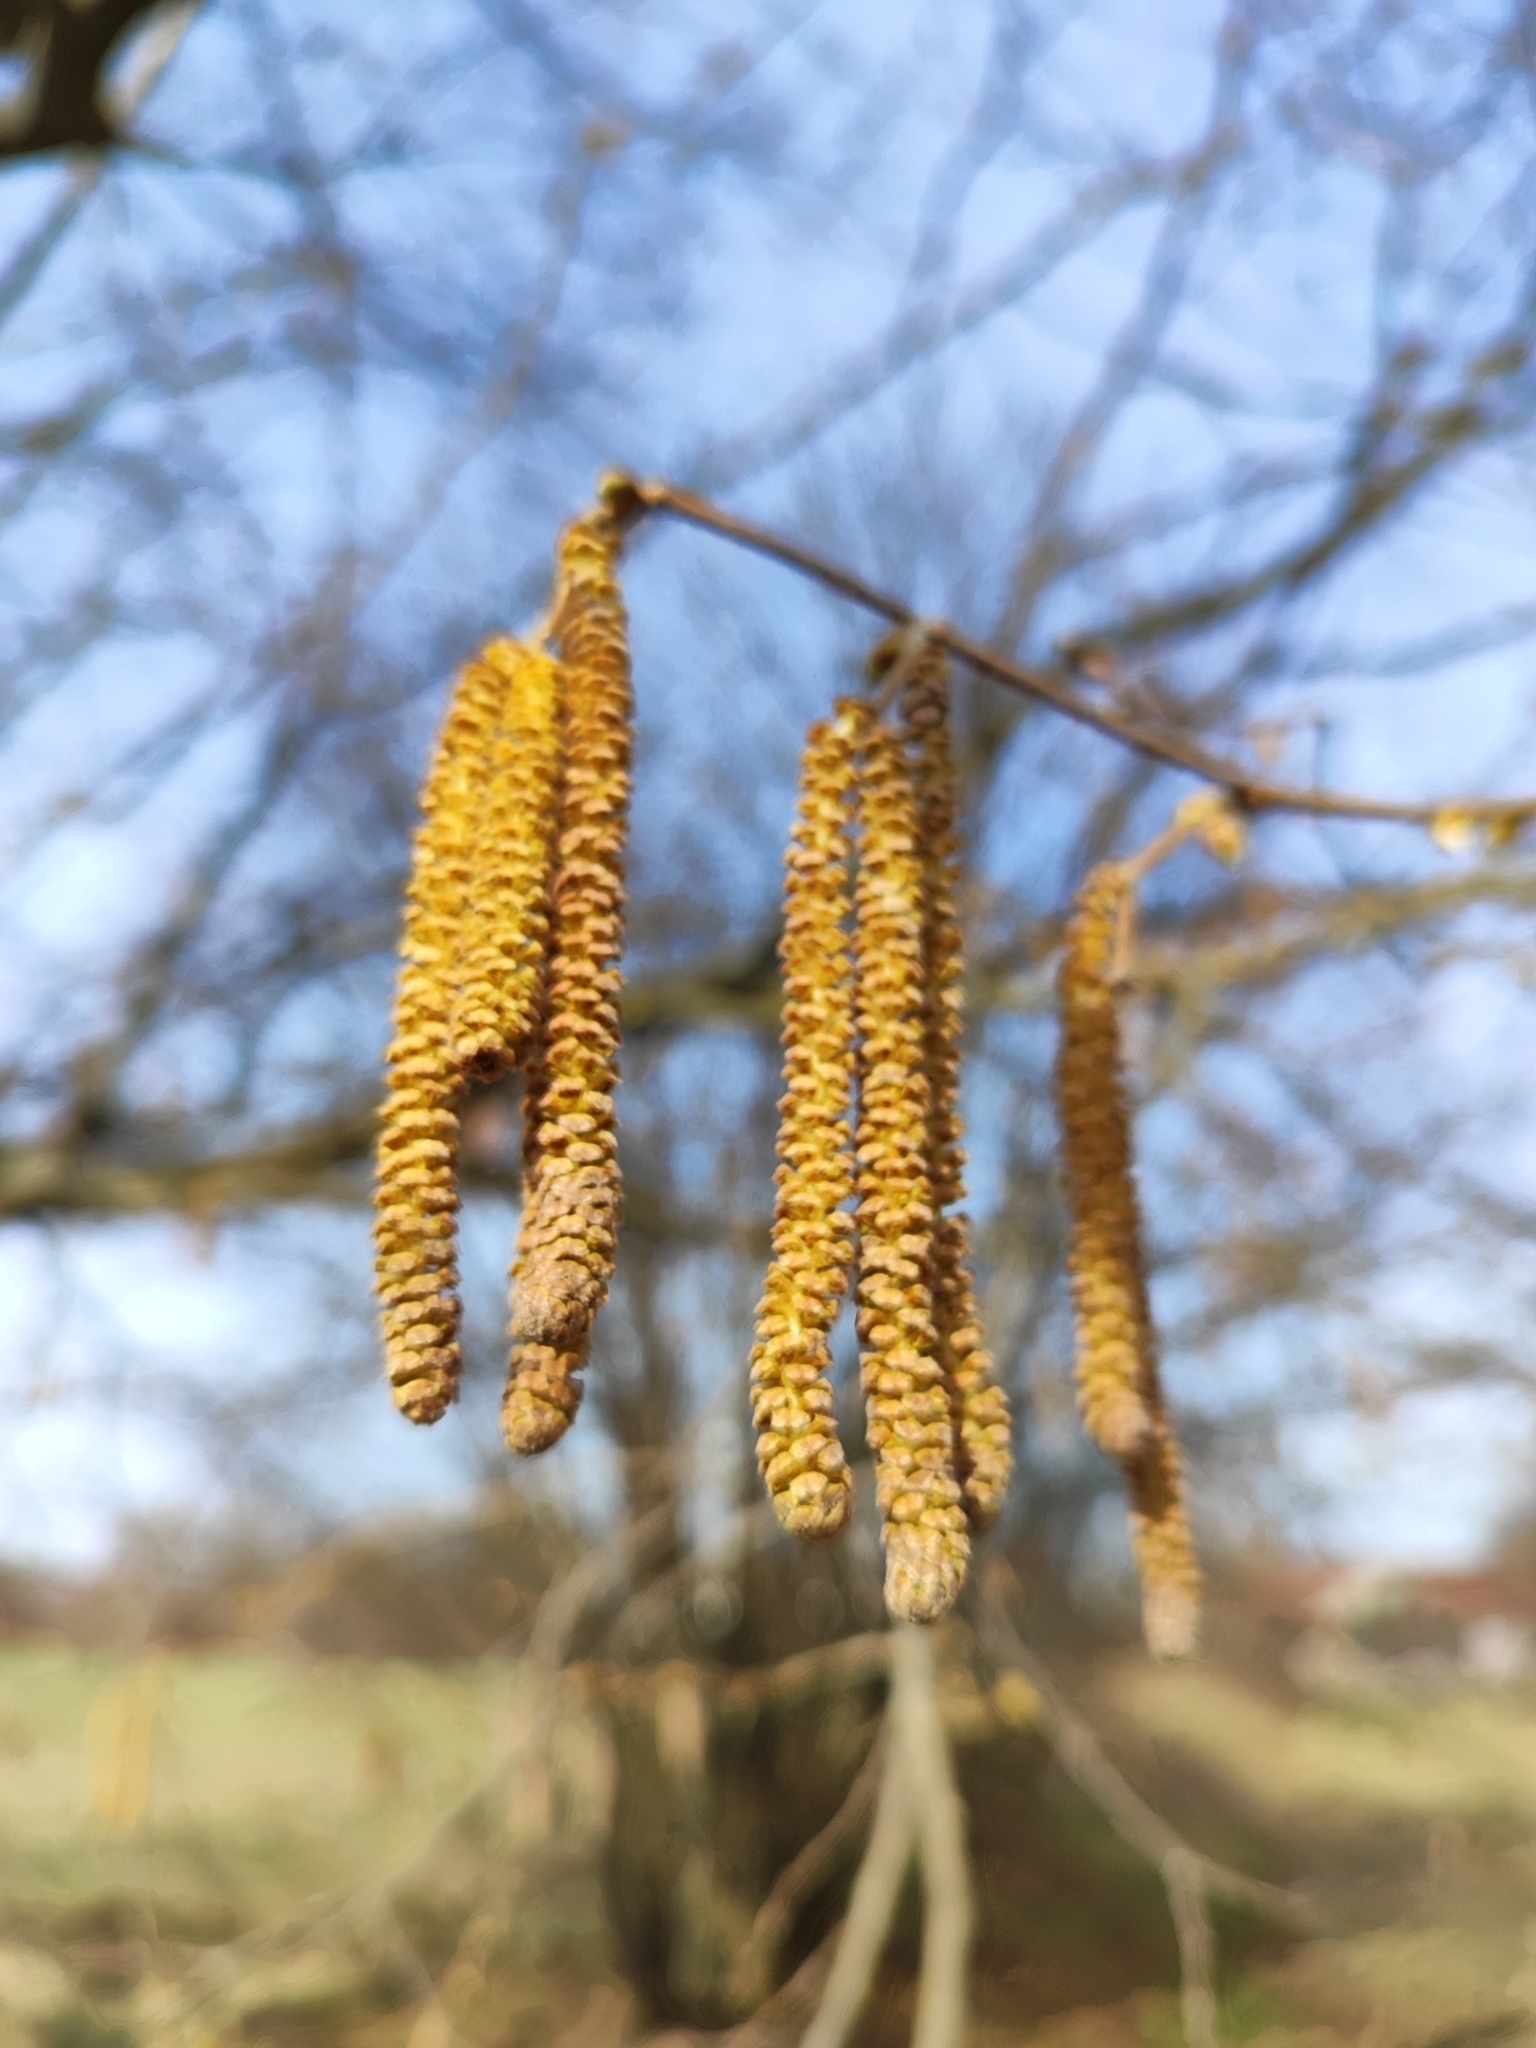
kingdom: Plantae
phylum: Tracheophyta
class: Magnoliopsida
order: Fagales
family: Betulaceae
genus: Corylus
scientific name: Corylus avellana
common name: European hazel
